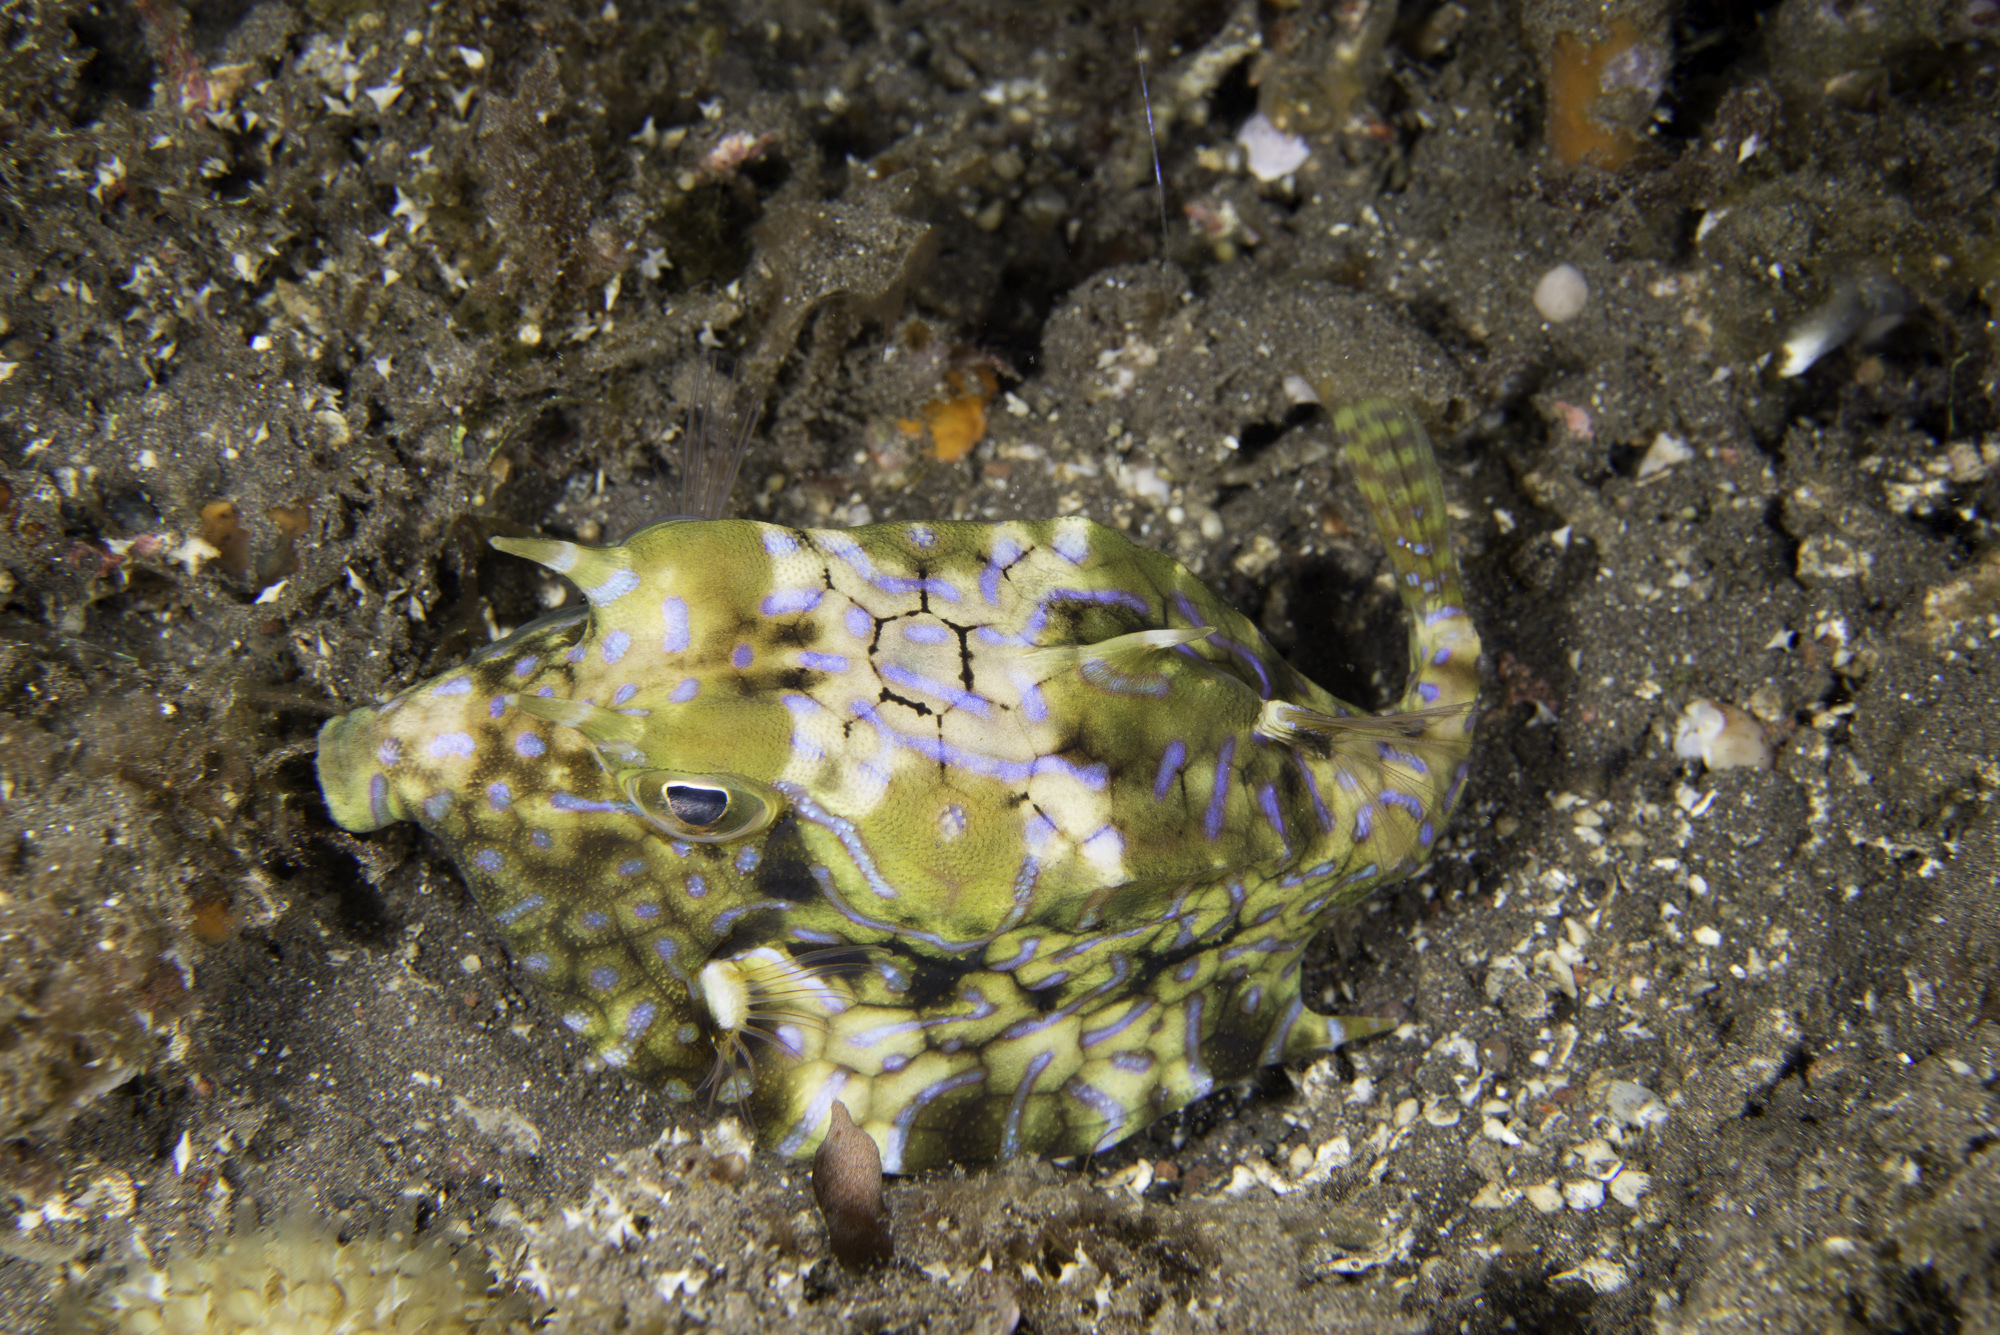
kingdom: Animalia
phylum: Chordata
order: Tetraodontiformes
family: Ostraciidae
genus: Lactoria
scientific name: Lactoria fornasini
